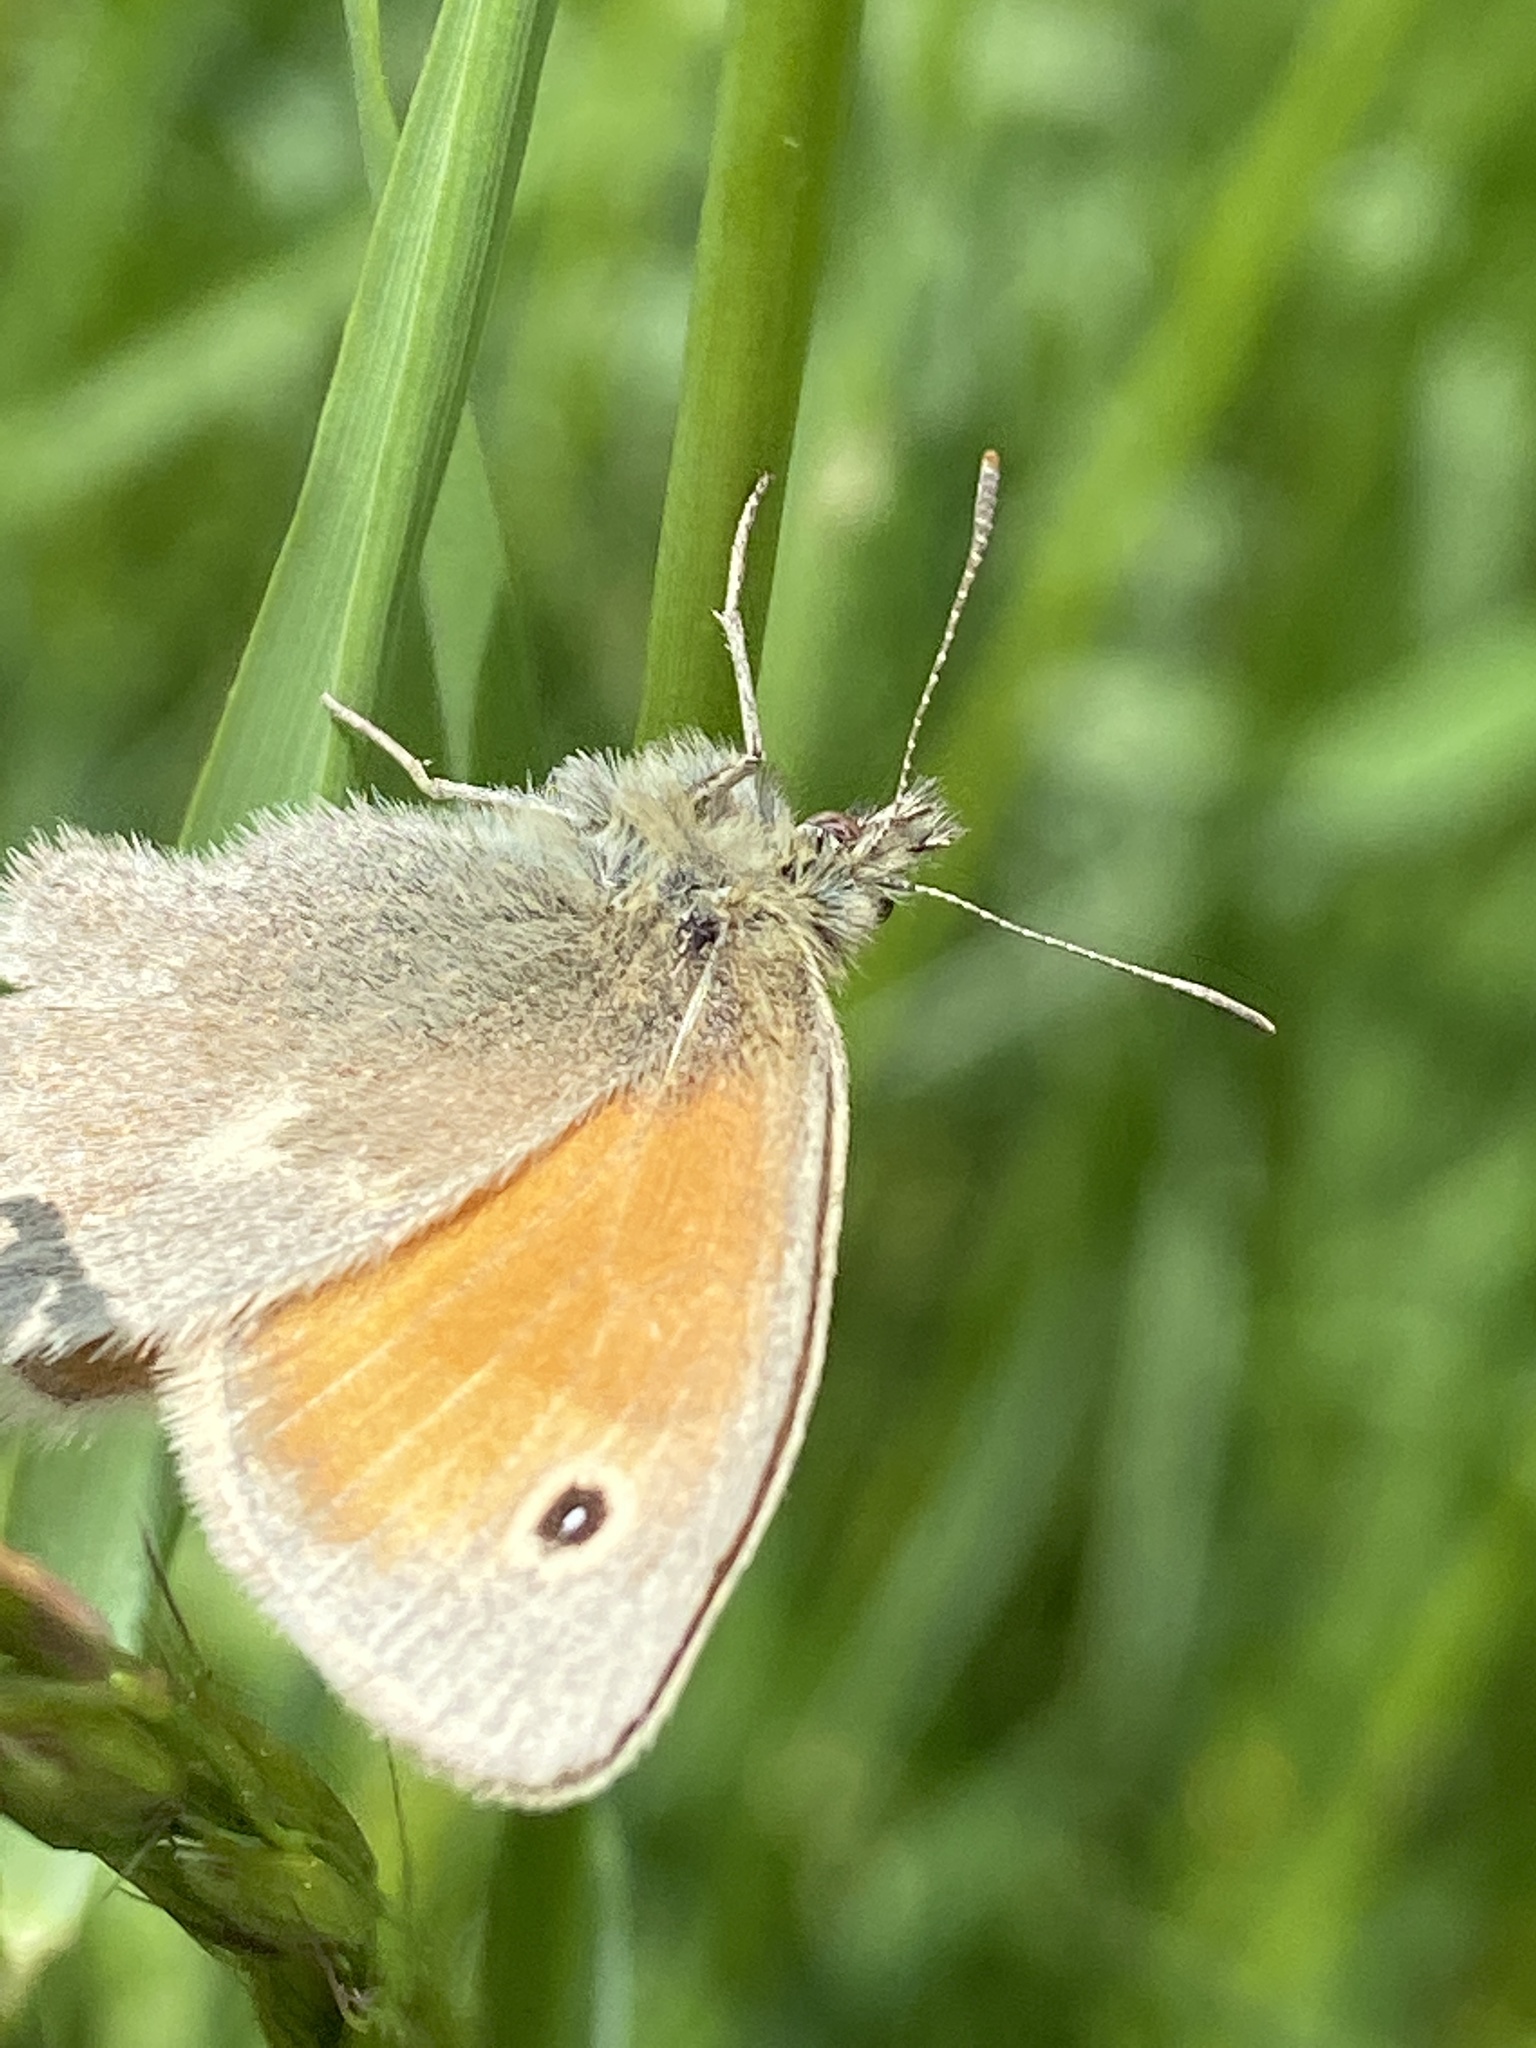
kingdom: Animalia
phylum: Arthropoda
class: Insecta
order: Lepidoptera
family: Nymphalidae
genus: Coenonympha
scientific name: Coenonympha pamphilus
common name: Small heath
